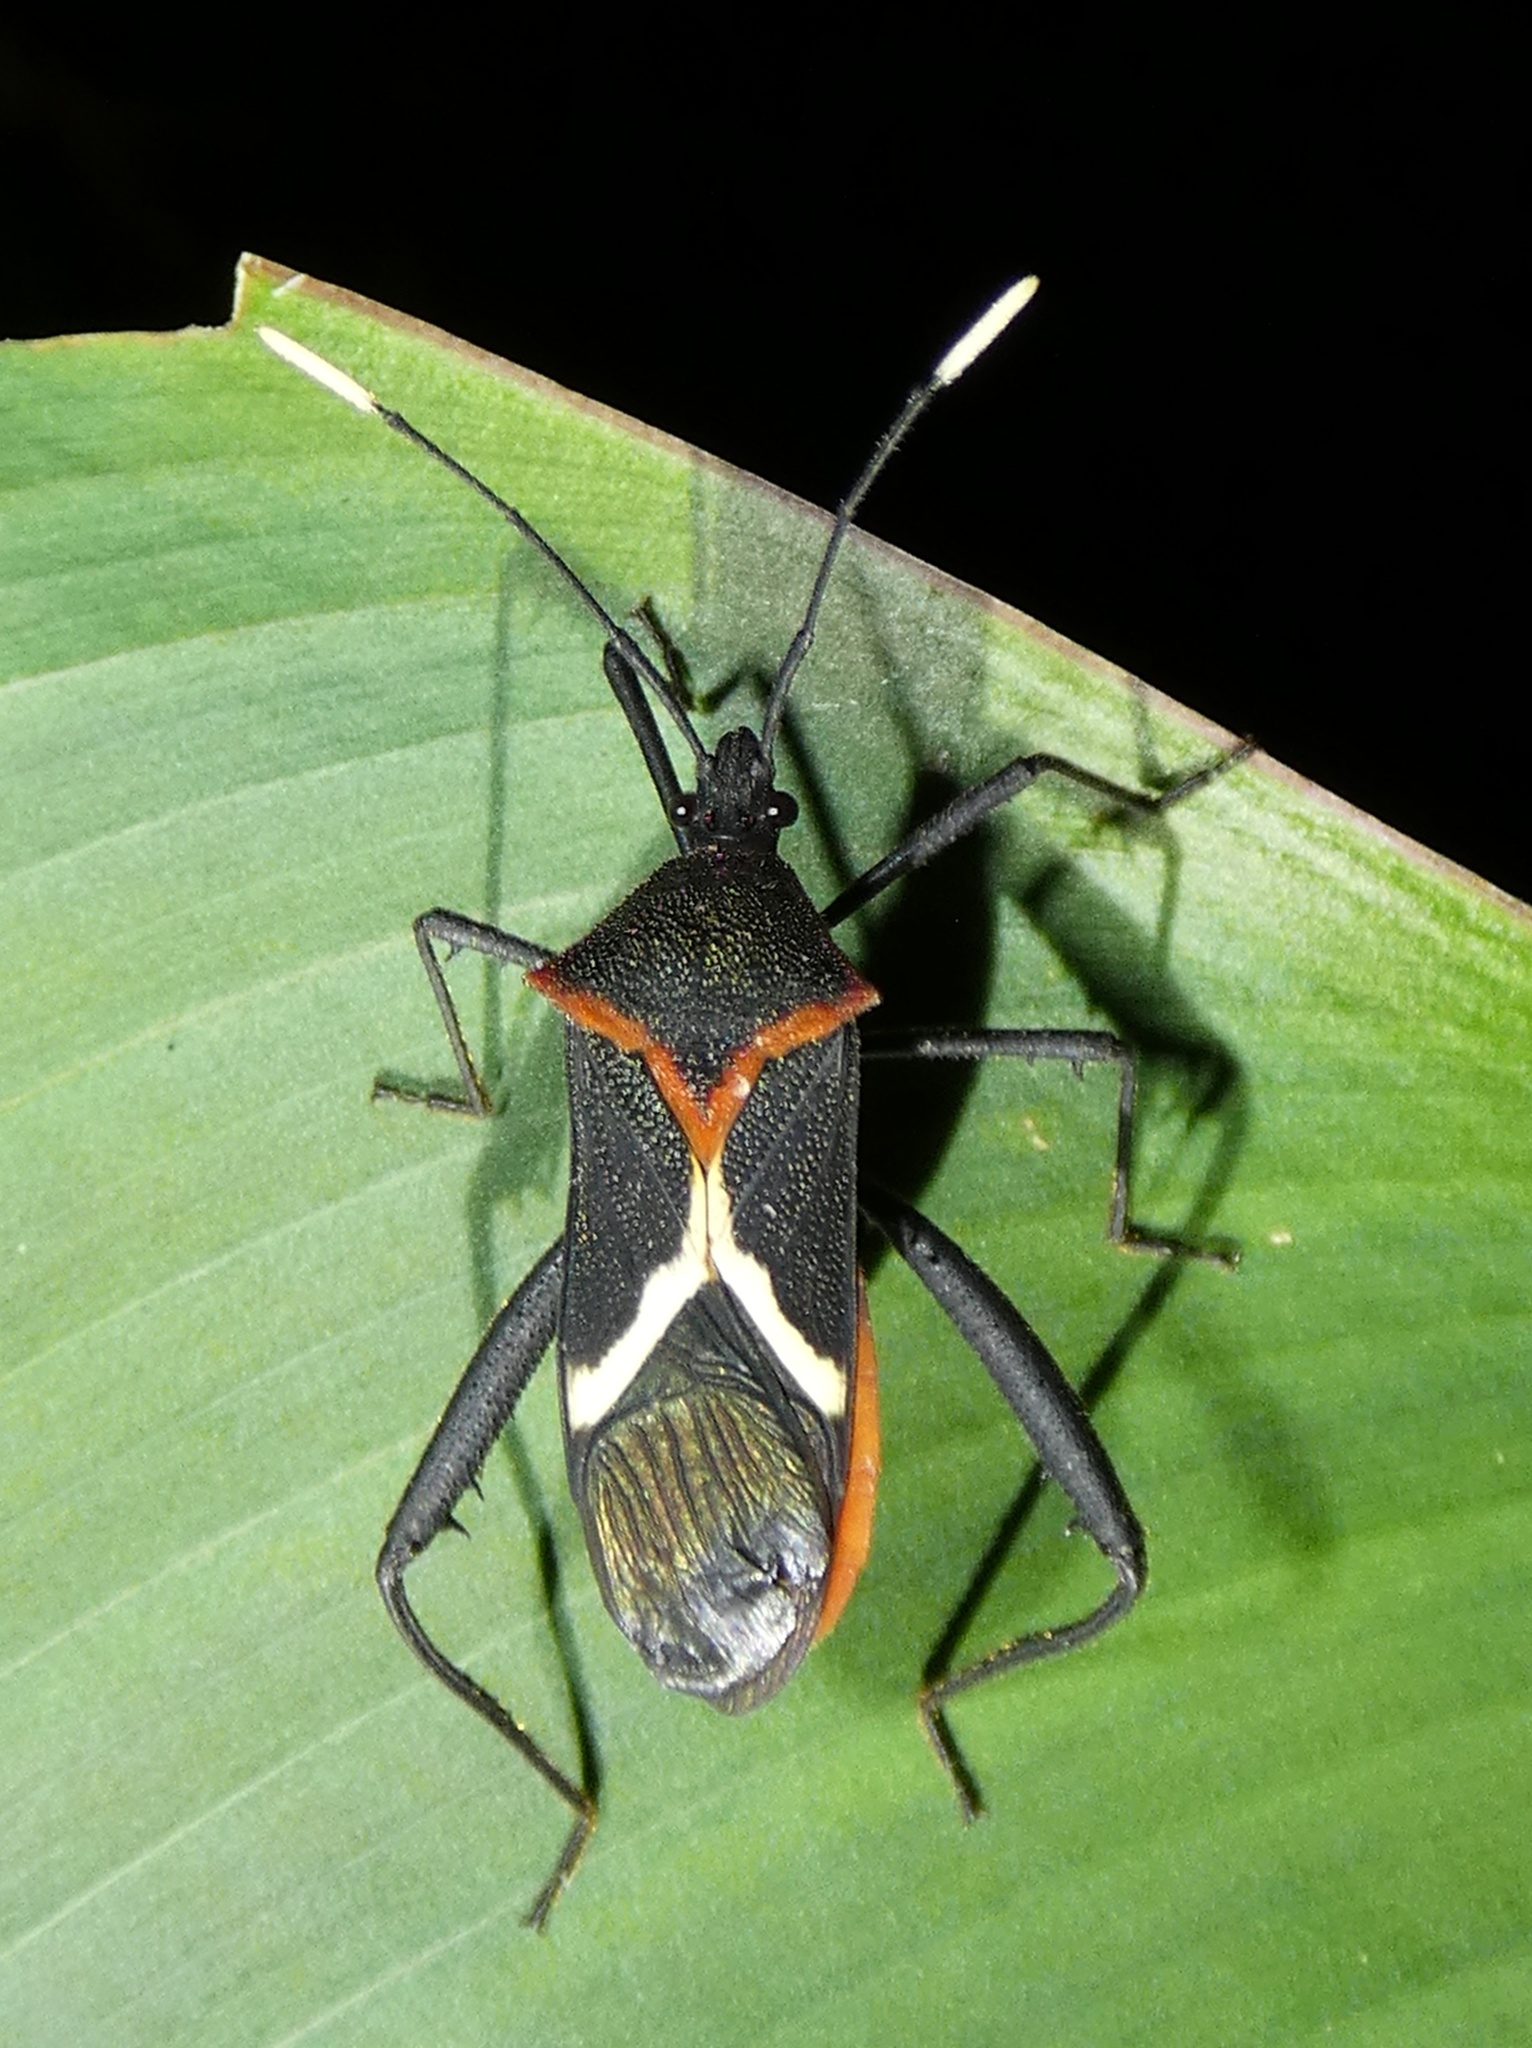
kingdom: Animalia
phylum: Arthropoda
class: Insecta
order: Hemiptera
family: Coreidae
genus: Leptoscelis
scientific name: Leptoscelis conspicuus
